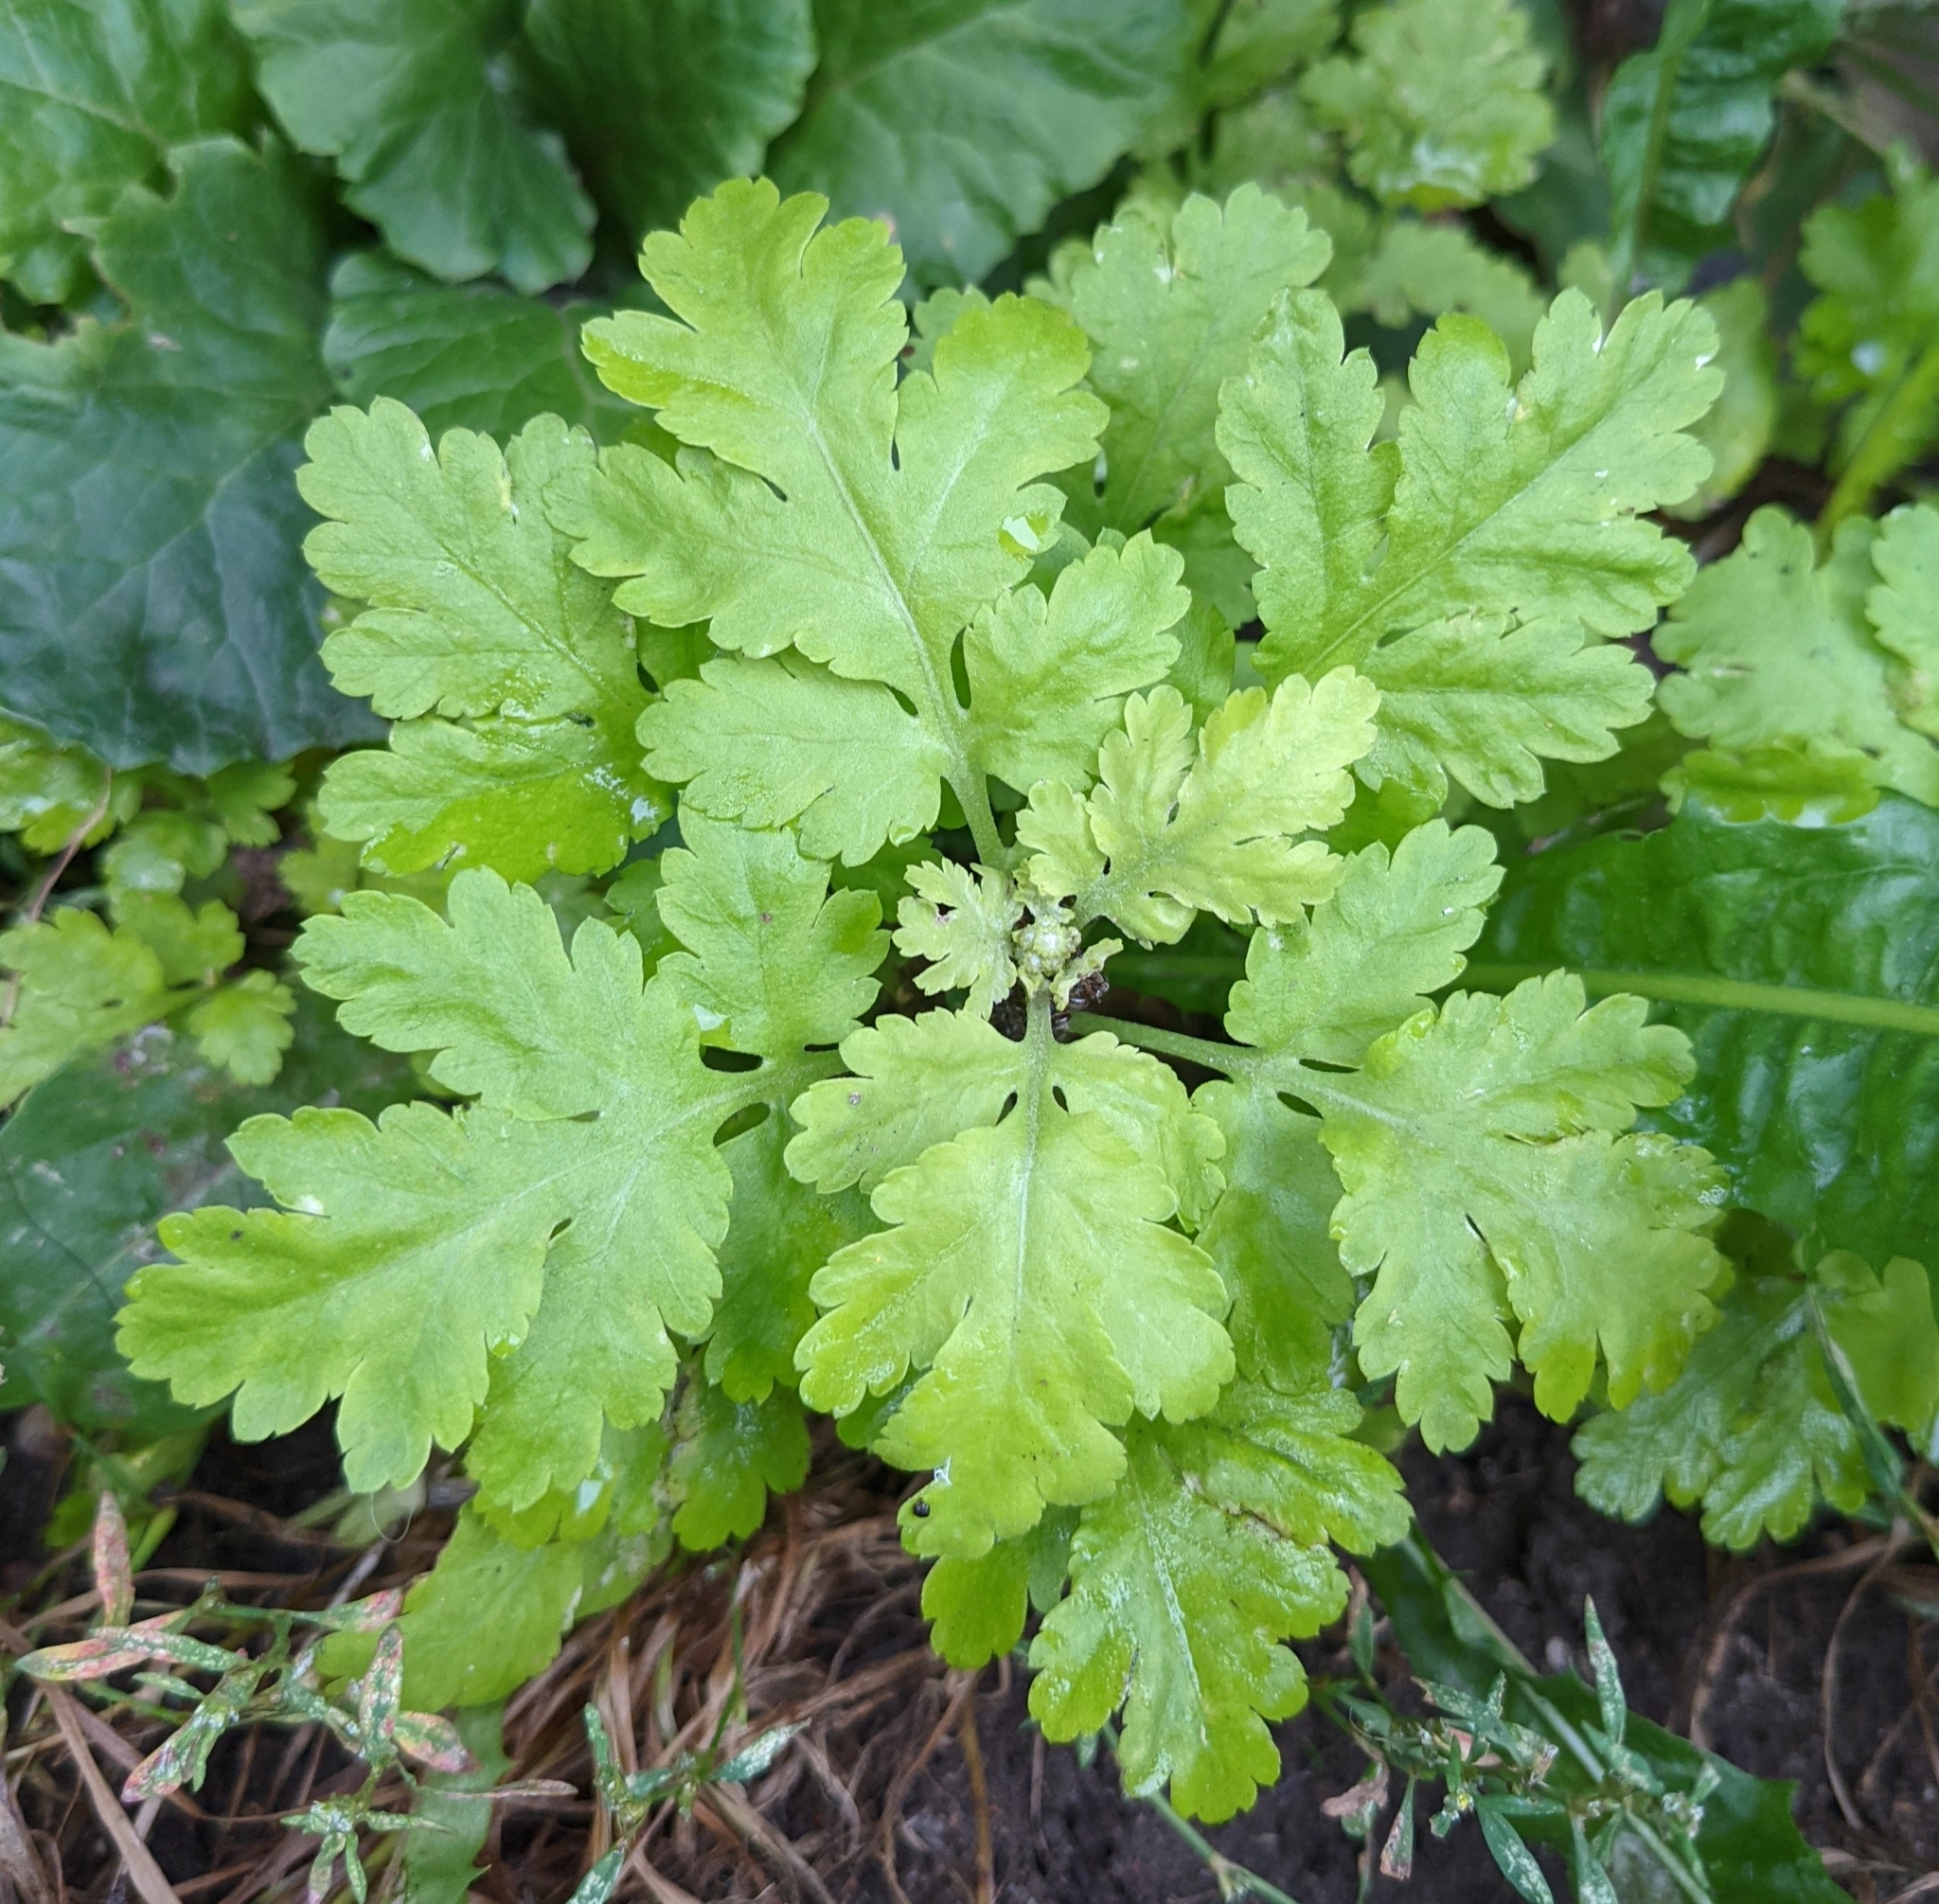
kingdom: Plantae
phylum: Tracheophyta
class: Magnoliopsida
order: Asterales
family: Asteraceae
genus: Tanacetum
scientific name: Tanacetum parthenium
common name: Feverfew
